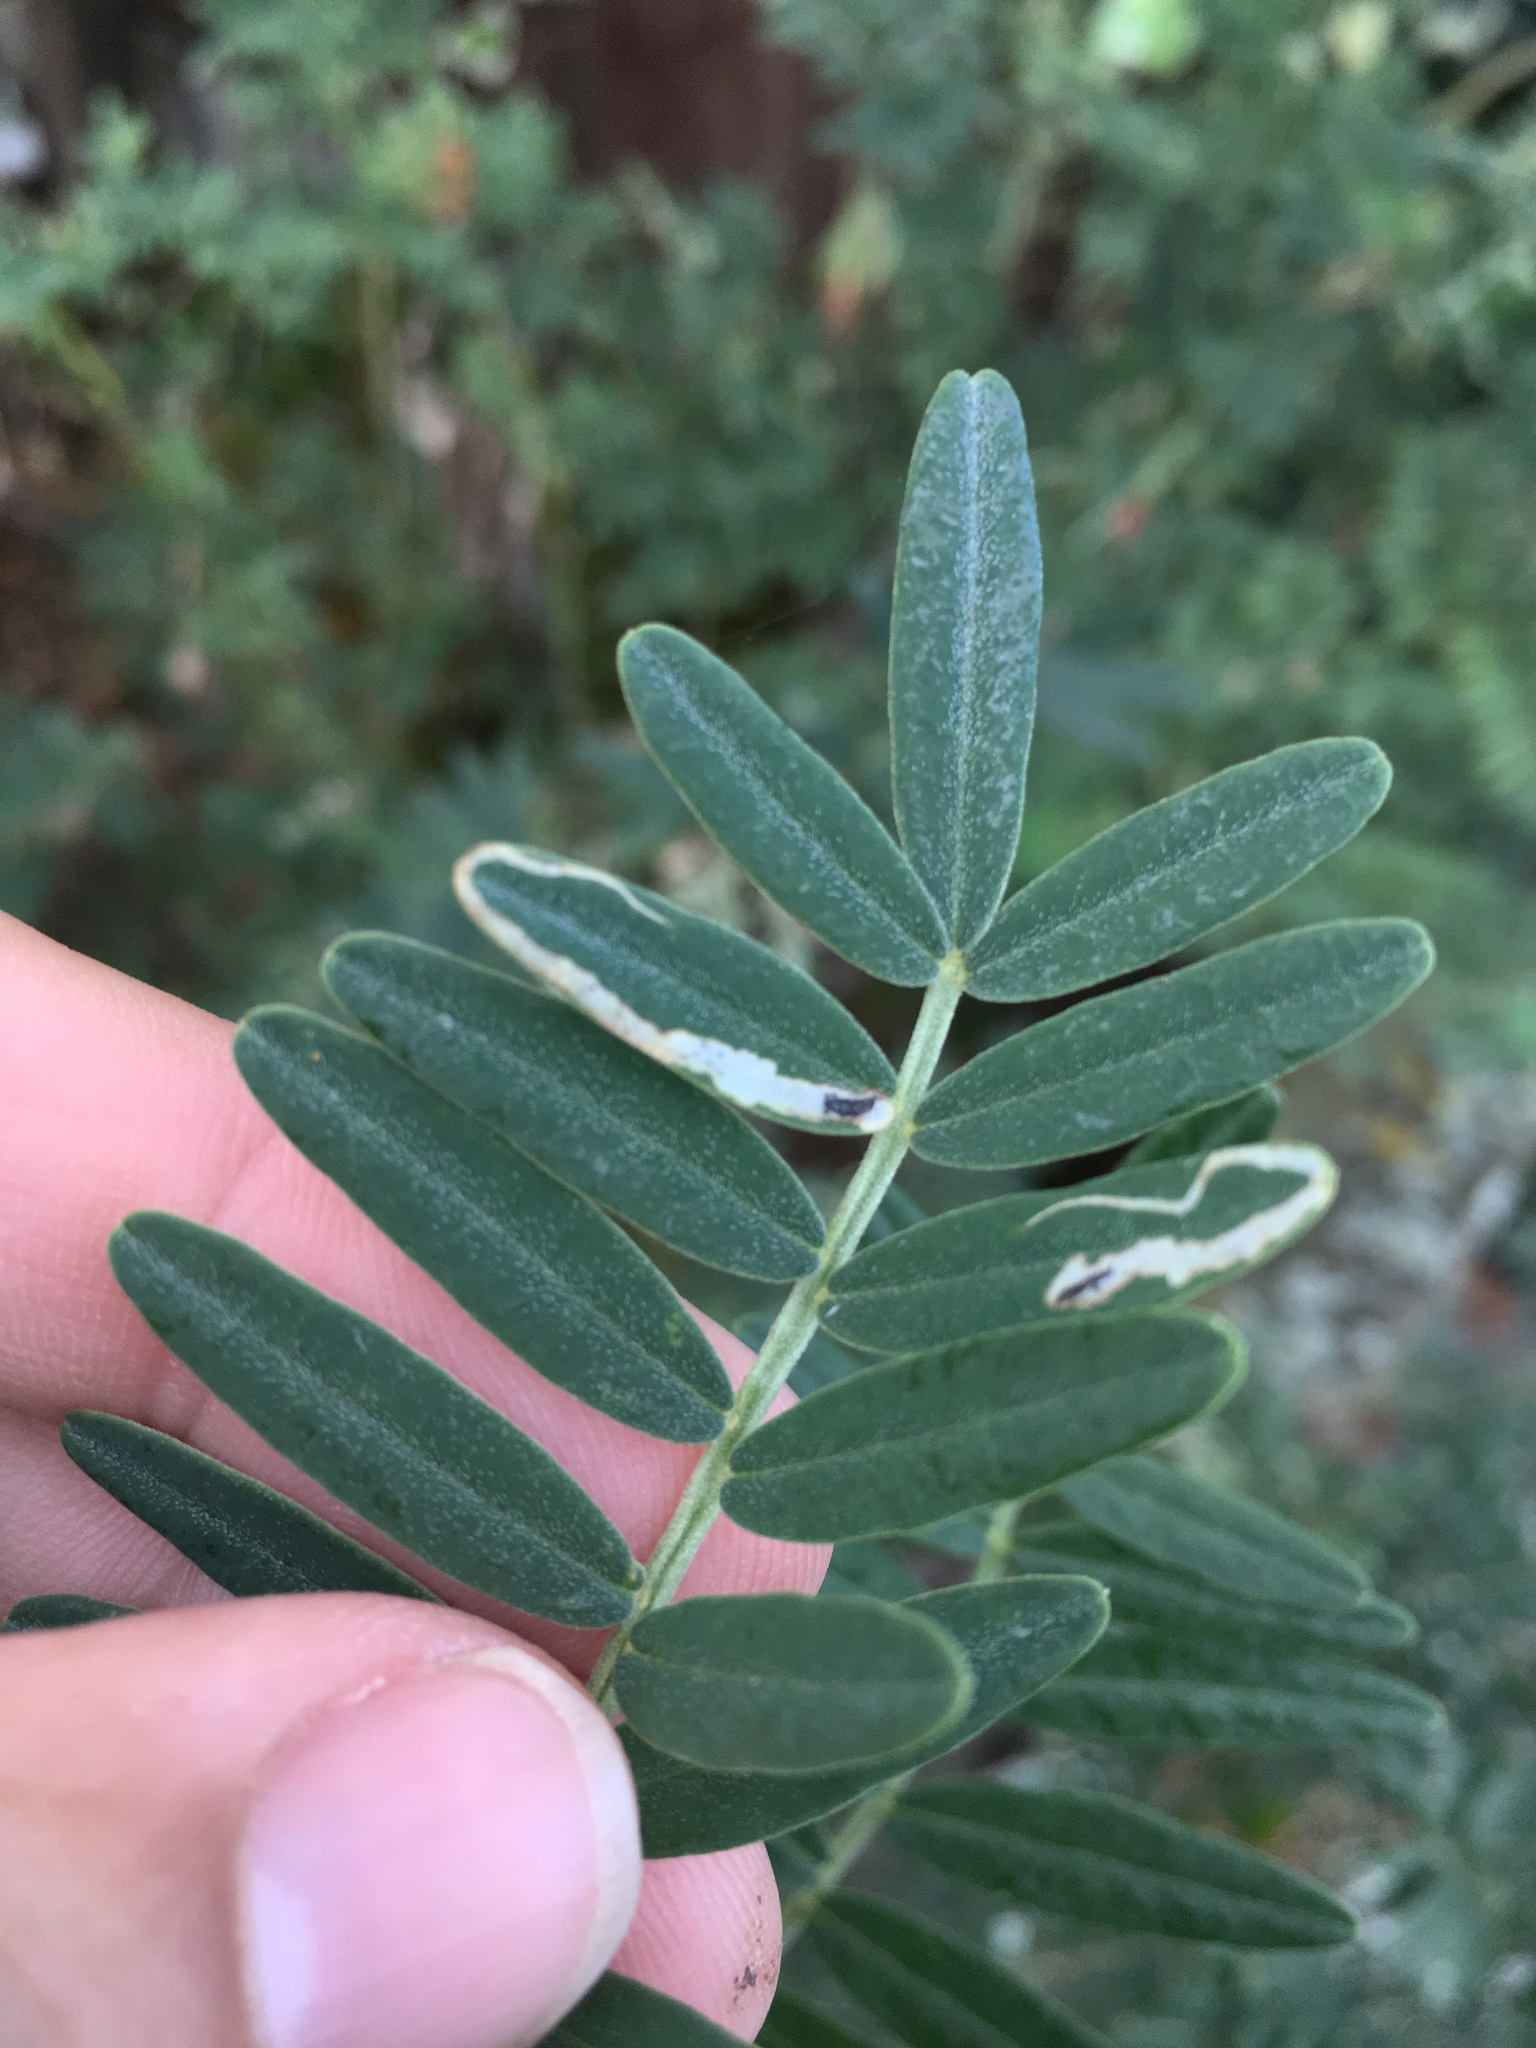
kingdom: Animalia
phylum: Arthropoda
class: Insecta
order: Diptera
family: Agromyzidae
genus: Liriomyza
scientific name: Liriomyza clianthi
